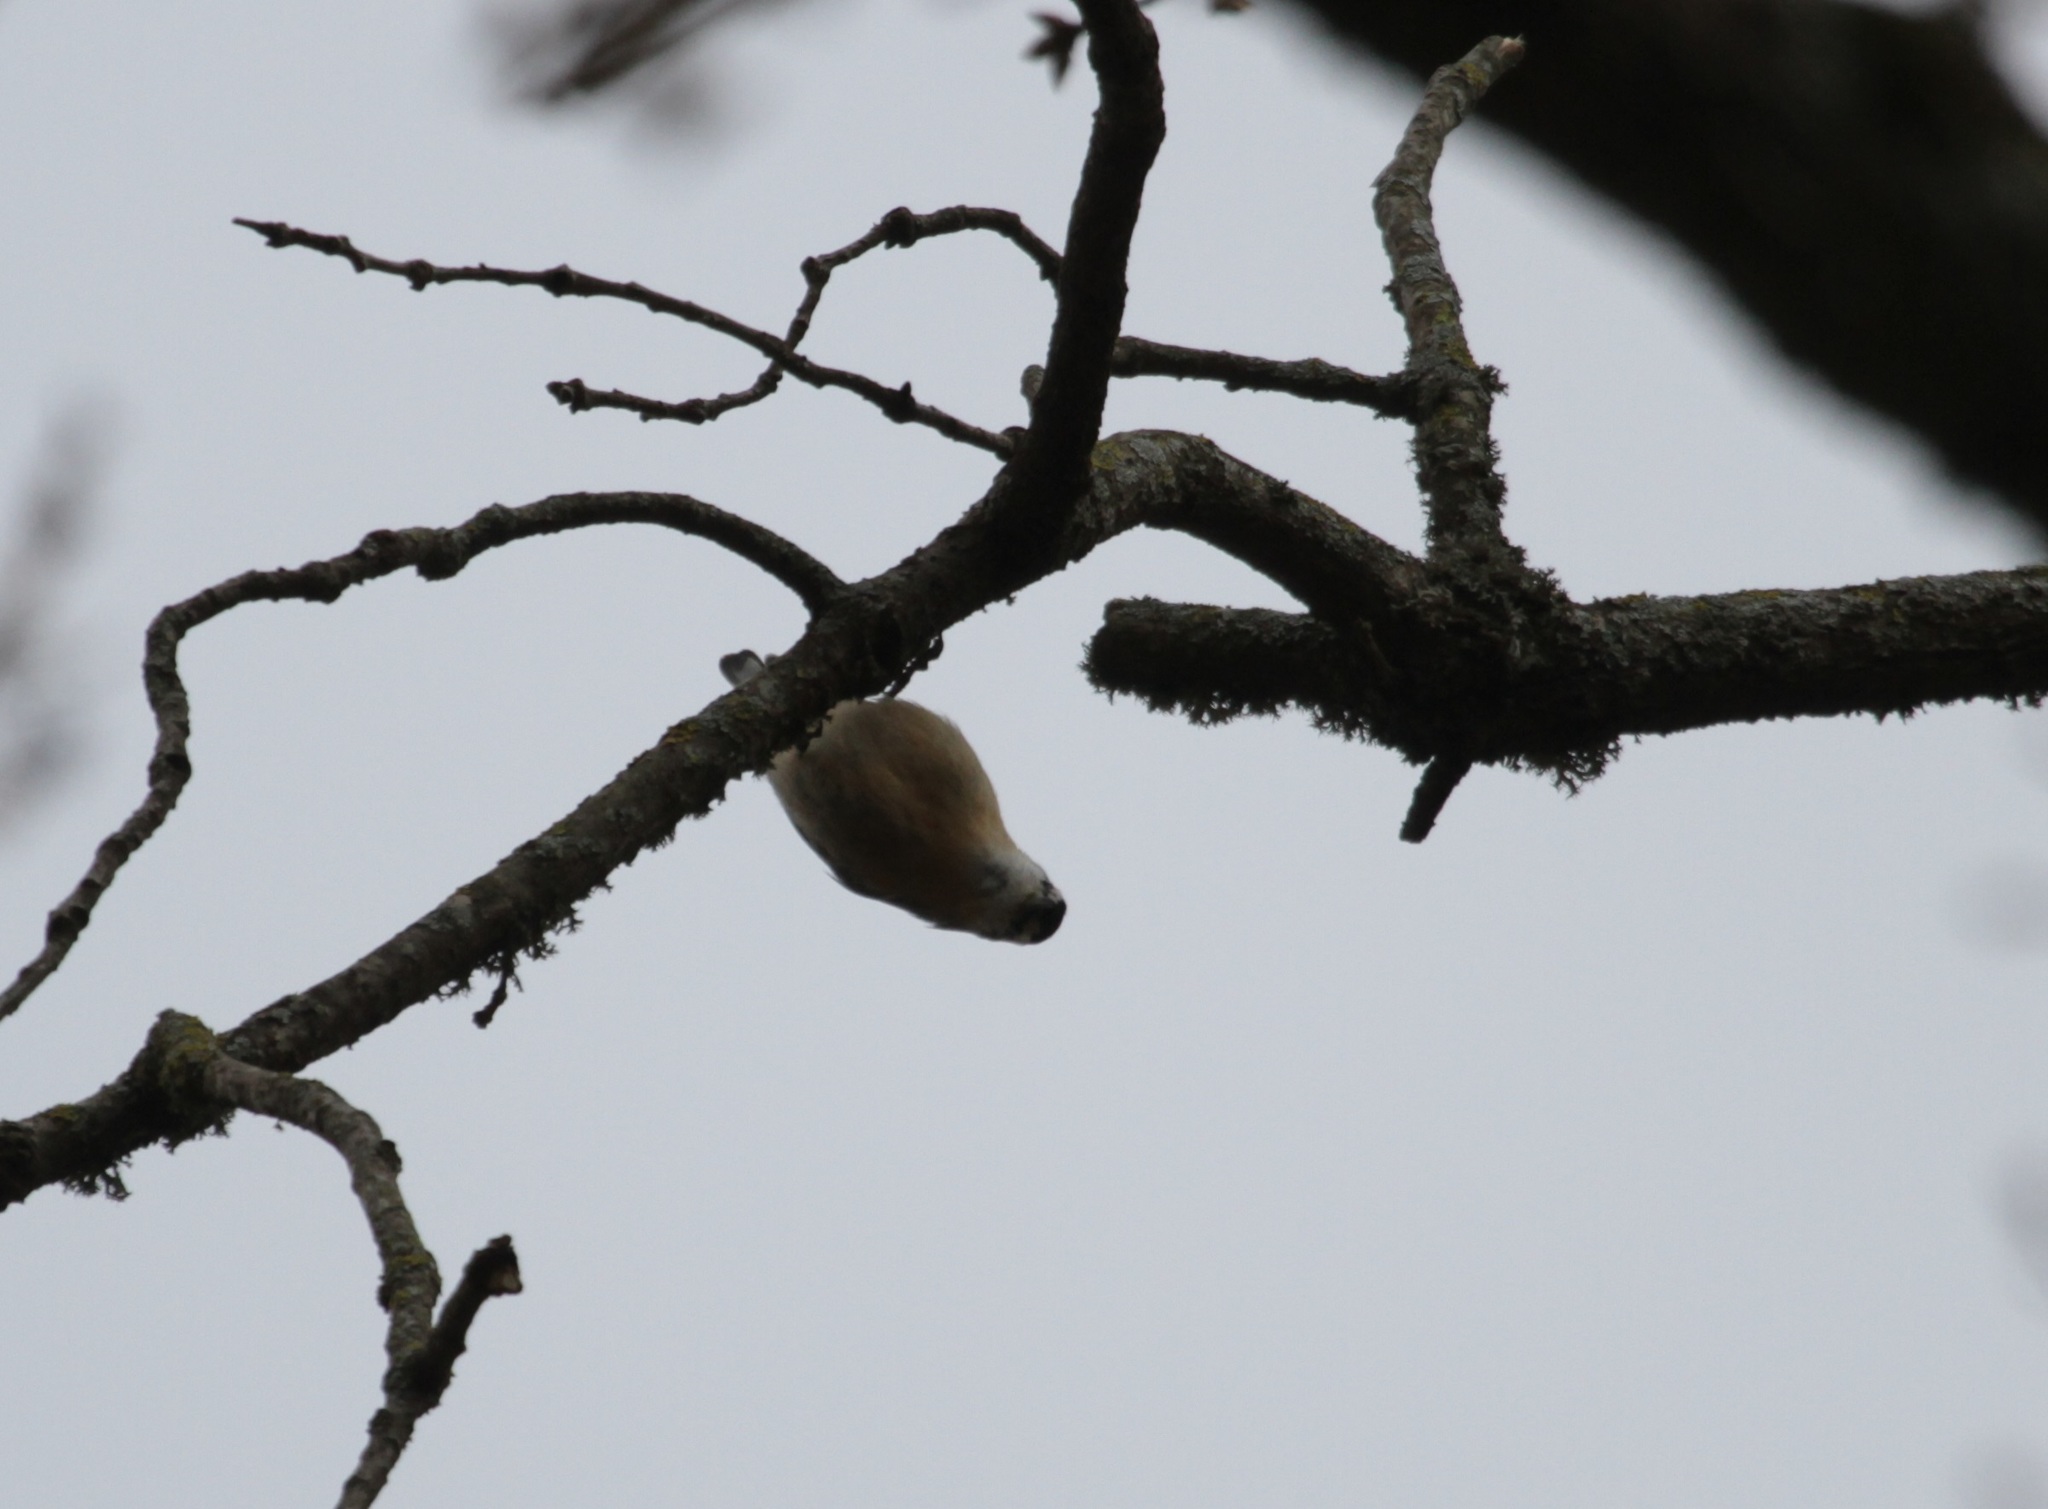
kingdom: Animalia
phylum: Chordata
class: Aves
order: Passeriformes
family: Sittidae
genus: Sitta
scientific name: Sitta ledanti
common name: Algerian nuthatch
